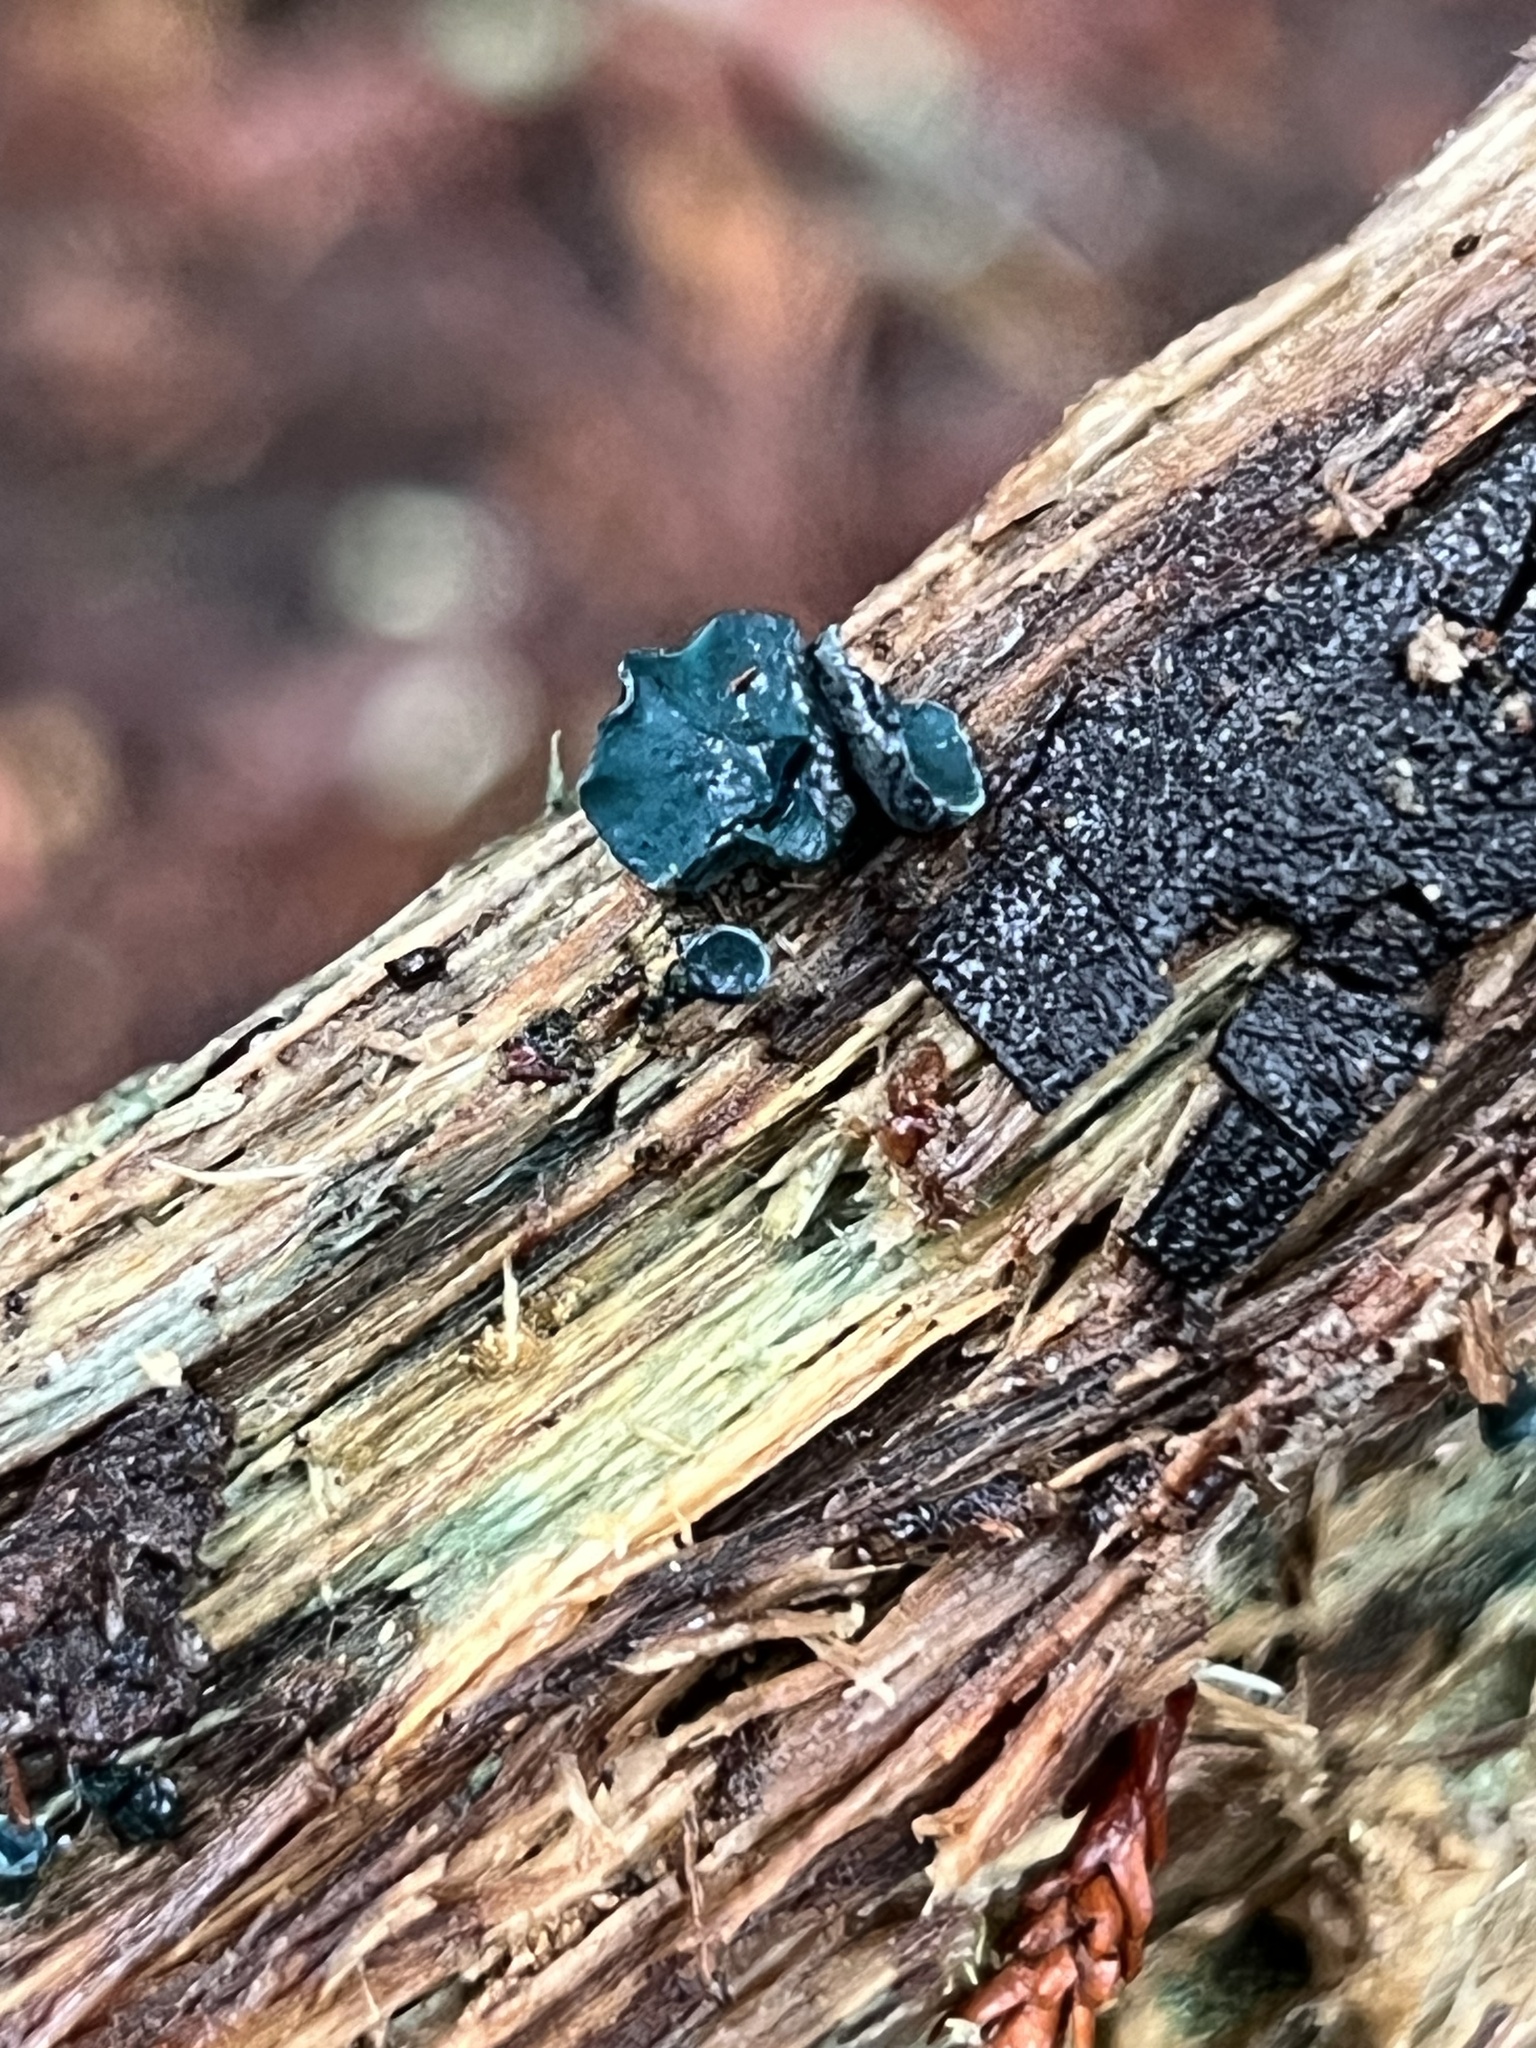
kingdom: Fungi
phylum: Ascomycota
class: Leotiomycetes
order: Helotiales
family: Chlorociboriaceae
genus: Chlorociboria
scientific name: Chlorociboria aeruginascens
